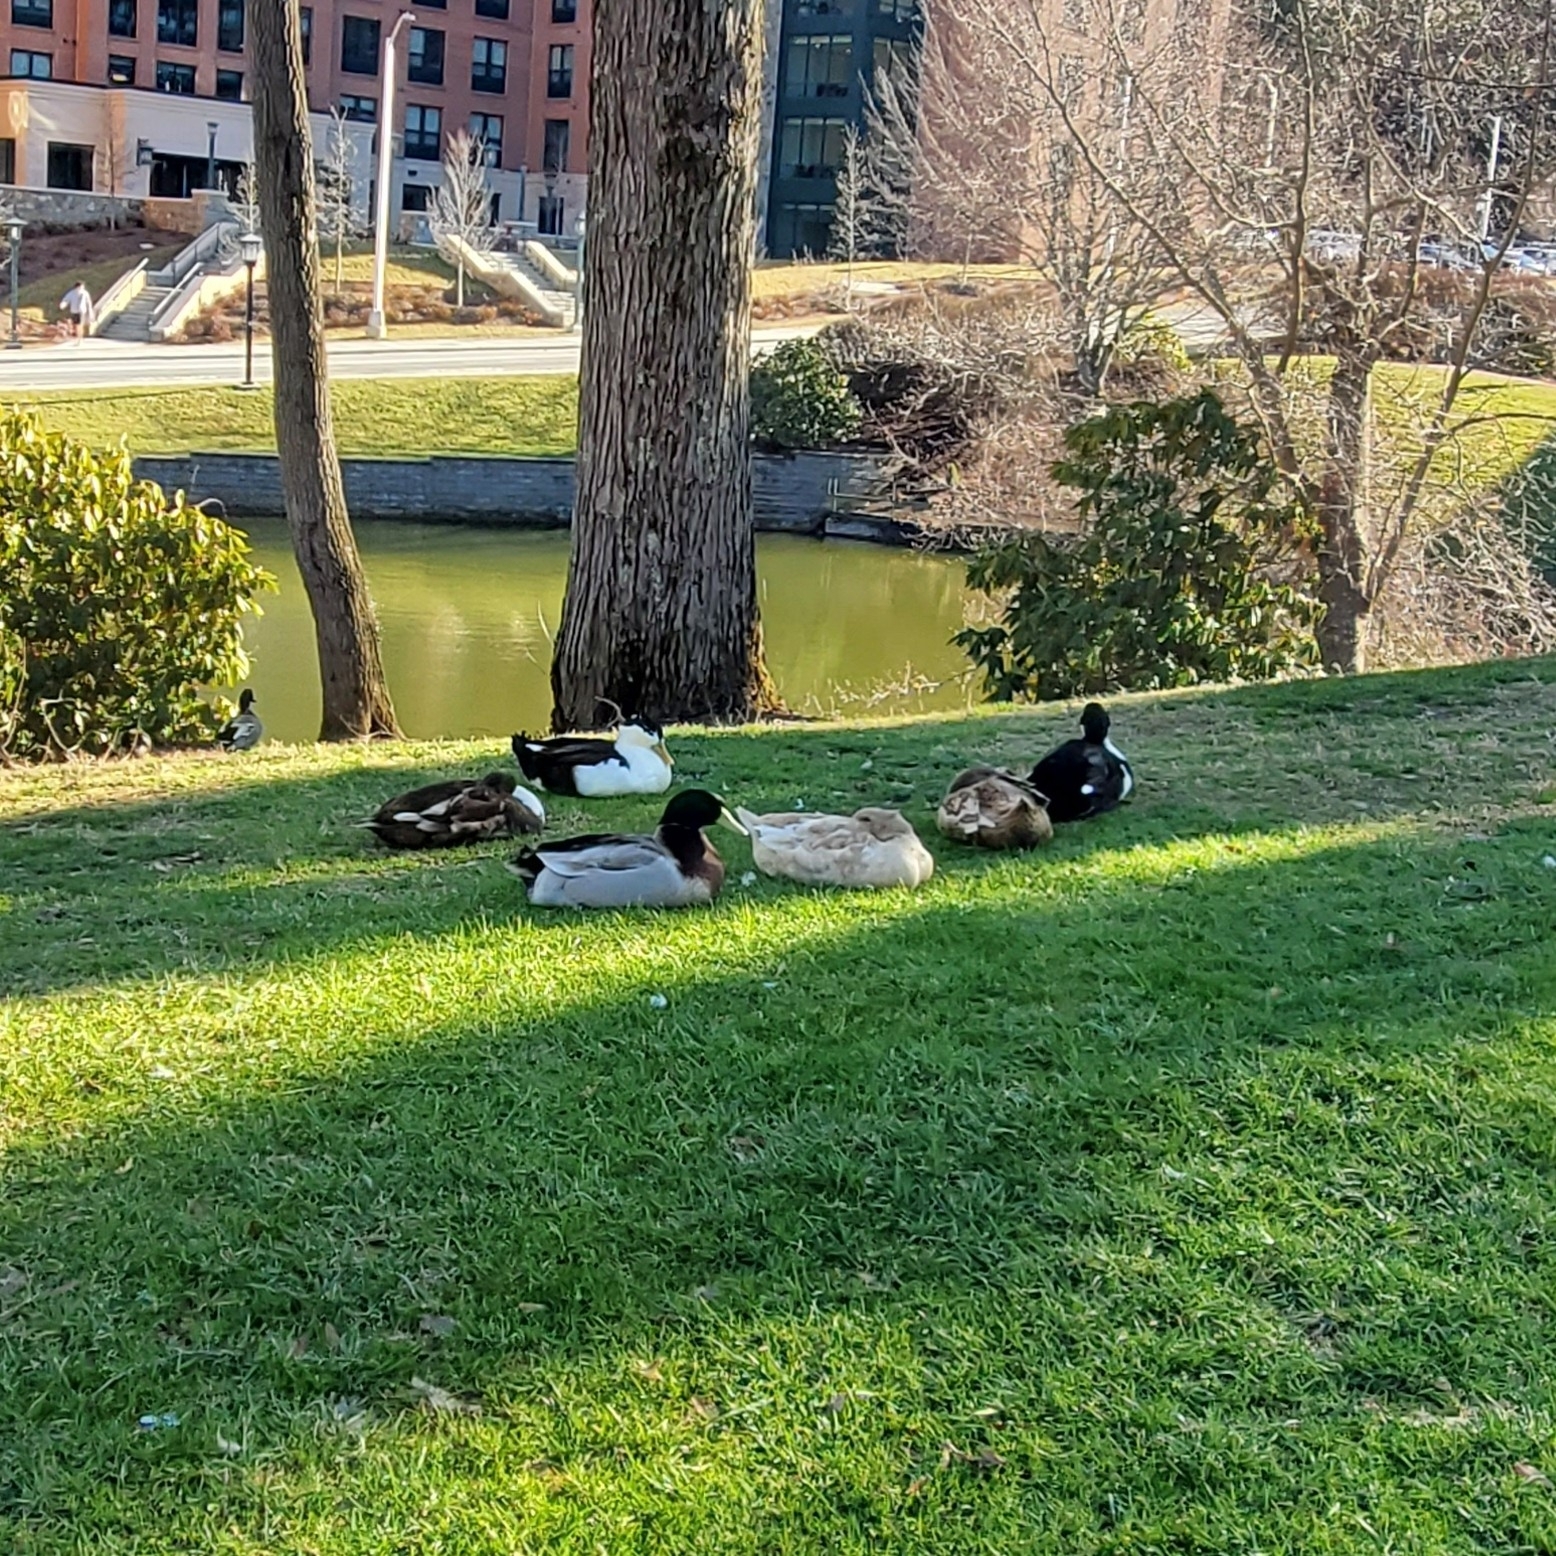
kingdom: Animalia
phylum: Chordata
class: Aves
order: Anseriformes
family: Anatidae
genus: Anas
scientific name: Anas platyrhynchos
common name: Mallard
